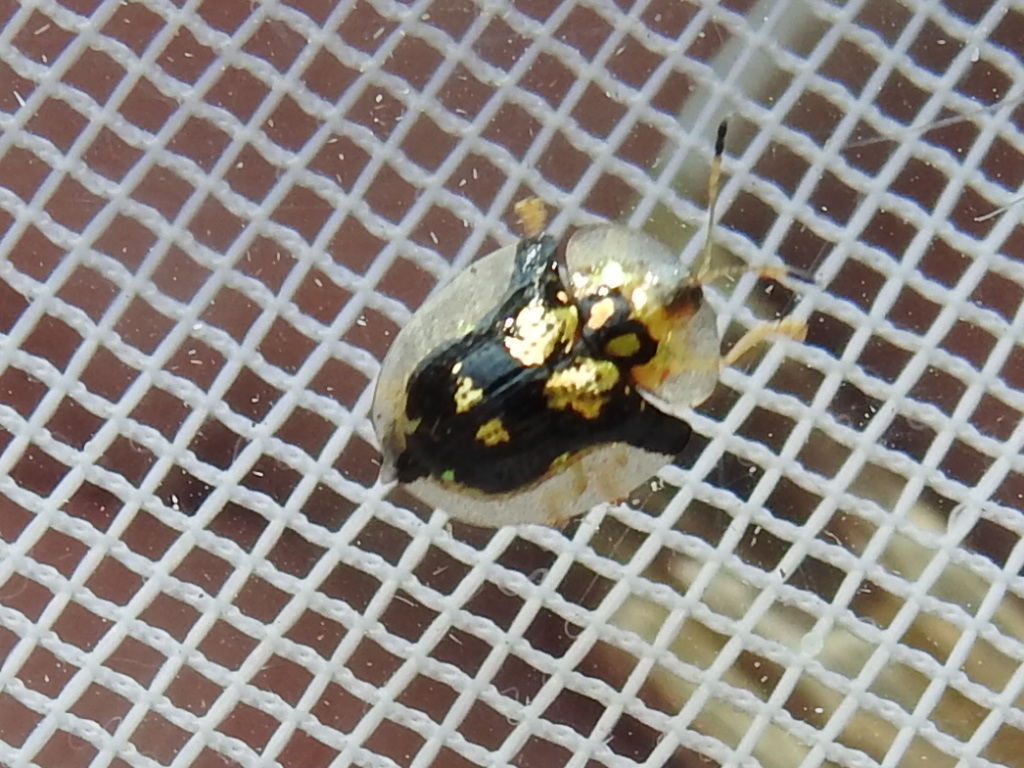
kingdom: Animalia
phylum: Arthropoda
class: Insecta
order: Coleoptera
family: Chrysomelidae
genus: Deloyala
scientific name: Deloyala guttata
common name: Mottled tortoise beetle
